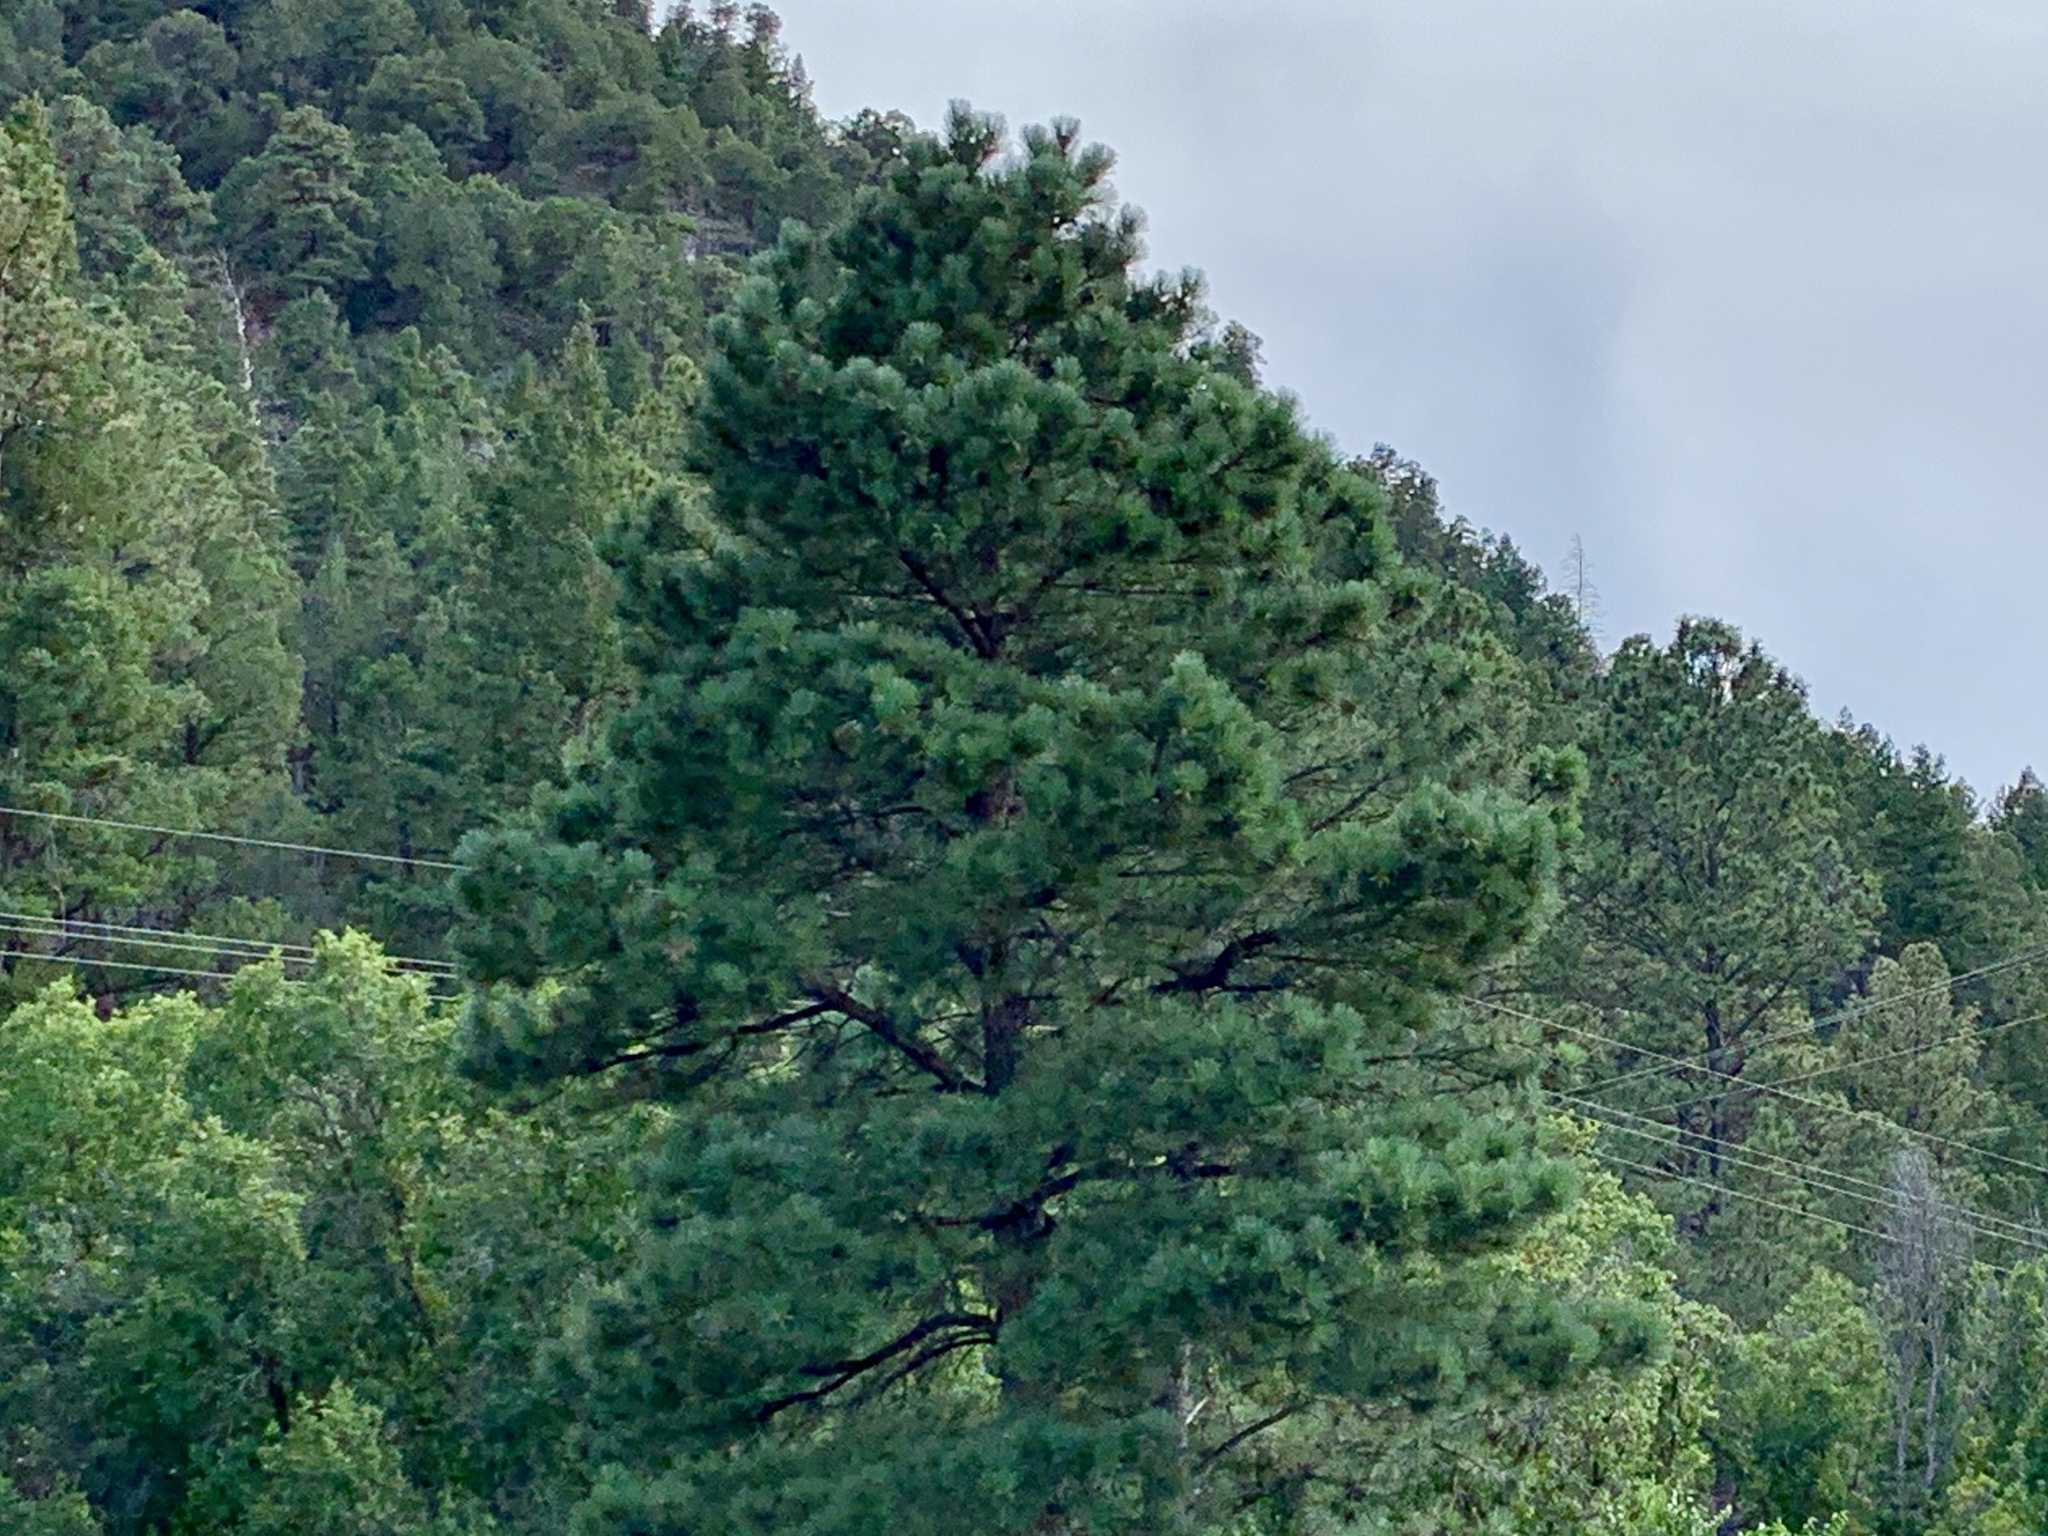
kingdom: Plantae
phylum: Tracheophyta
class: Pinopsida
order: Pinales
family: Pinaceae
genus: Pinus
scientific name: Pinus ponderosa
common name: Western yellow-pine
